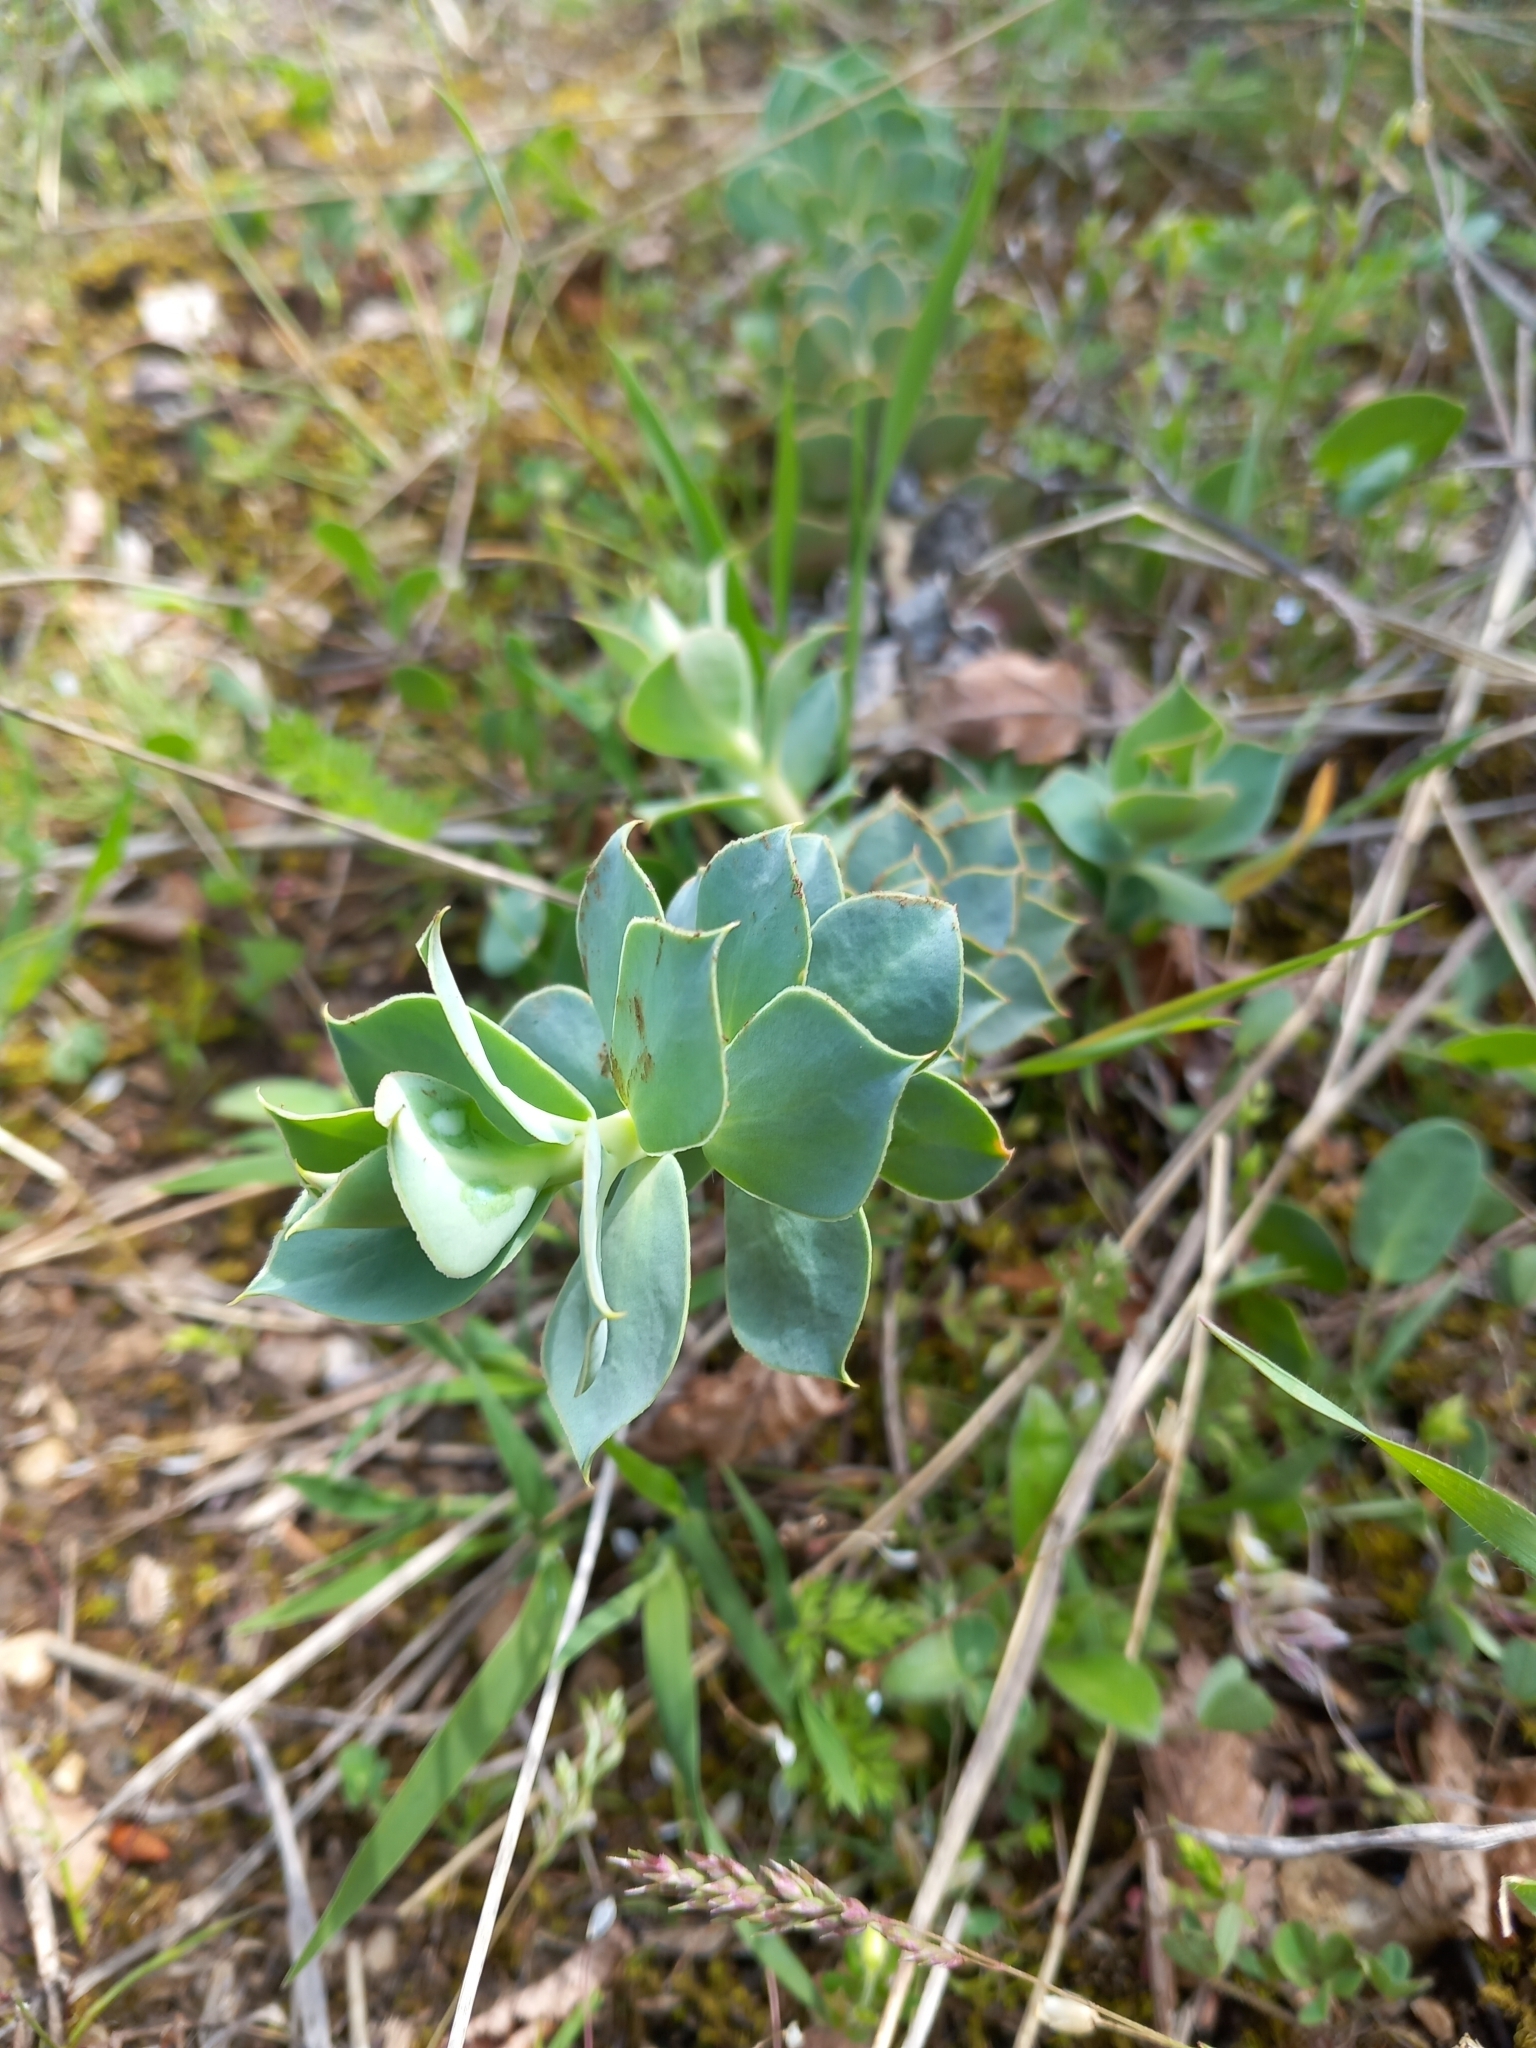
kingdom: Plantae
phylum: Tracheophyta
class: Magnoliopsida
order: Malpighiales
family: Euphorbiaceae
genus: Euphorbia
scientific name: Euphorbia myrsinites
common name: Myrtle spurge
